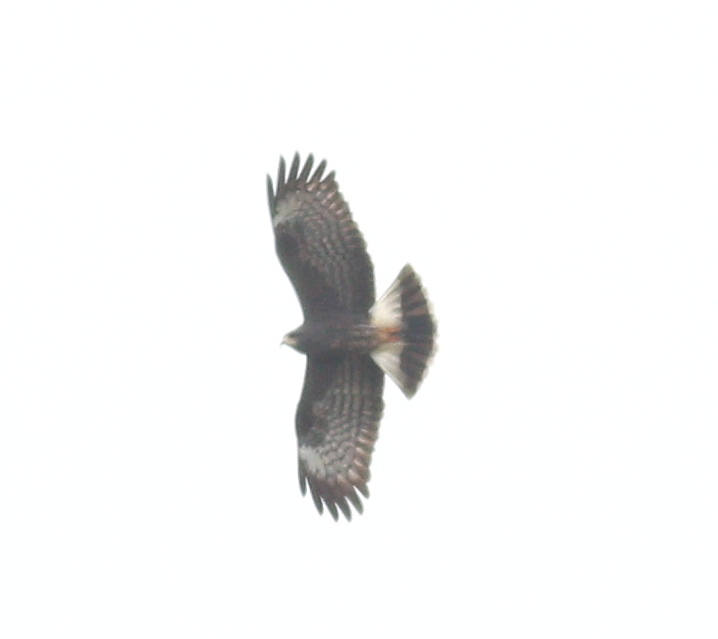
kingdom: Animalia
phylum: Chordata
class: Aves
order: Accipitriformes
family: Accipitridae
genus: Rostrhamus
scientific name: Rostrhamus sociabilis
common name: Snail kite
